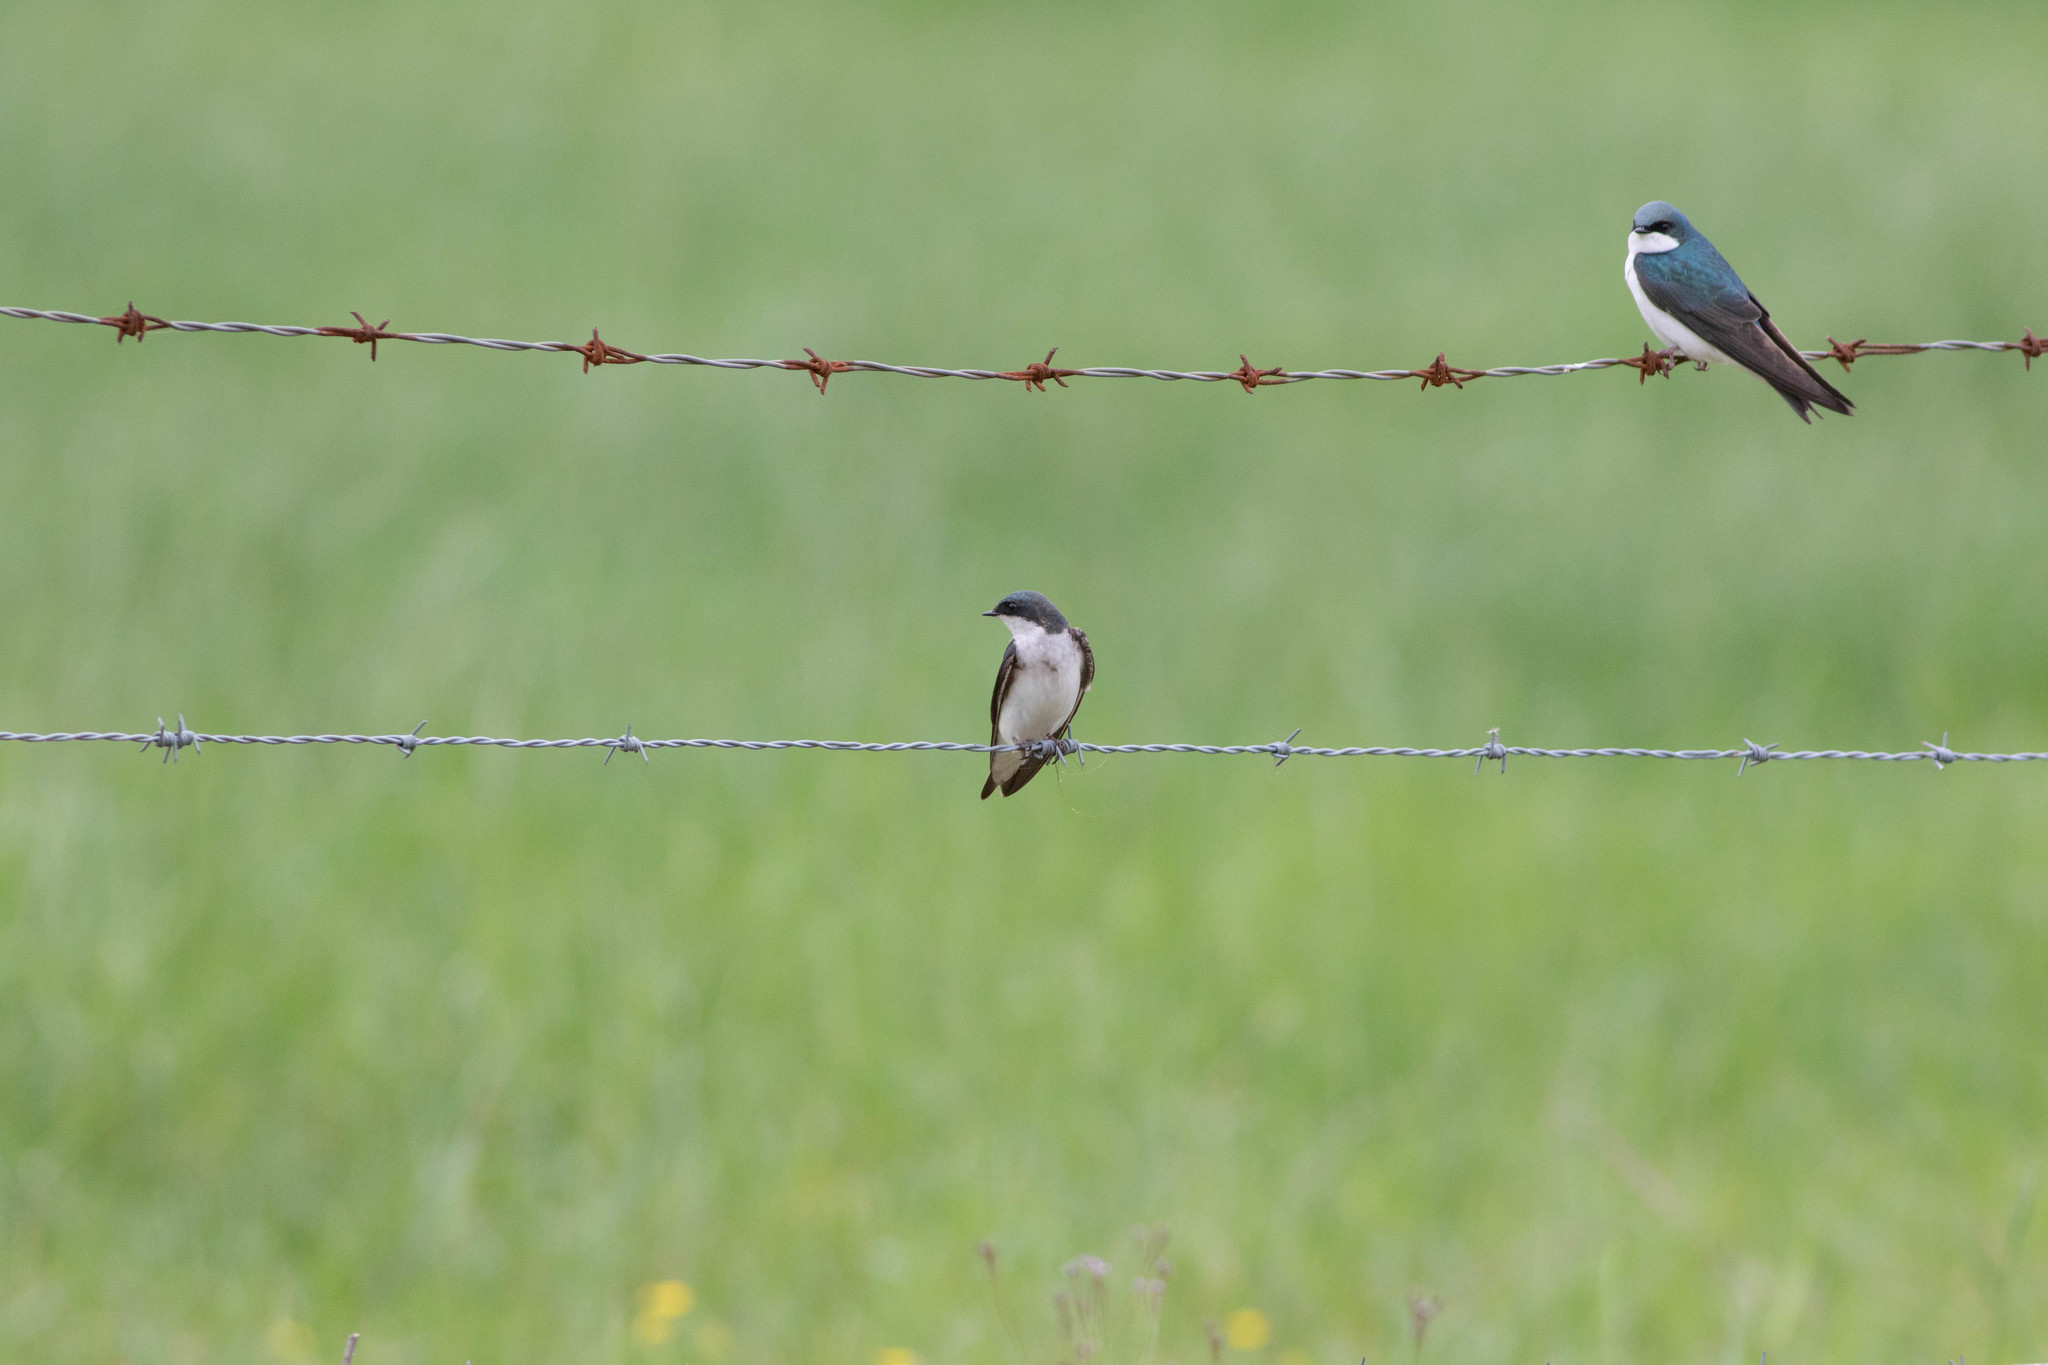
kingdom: Animalia
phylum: Chordata
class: Aves
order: Passeriformes
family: Hirundinidae
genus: Tachycineta
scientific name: Tachycineta bicolor
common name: Tree swallow
